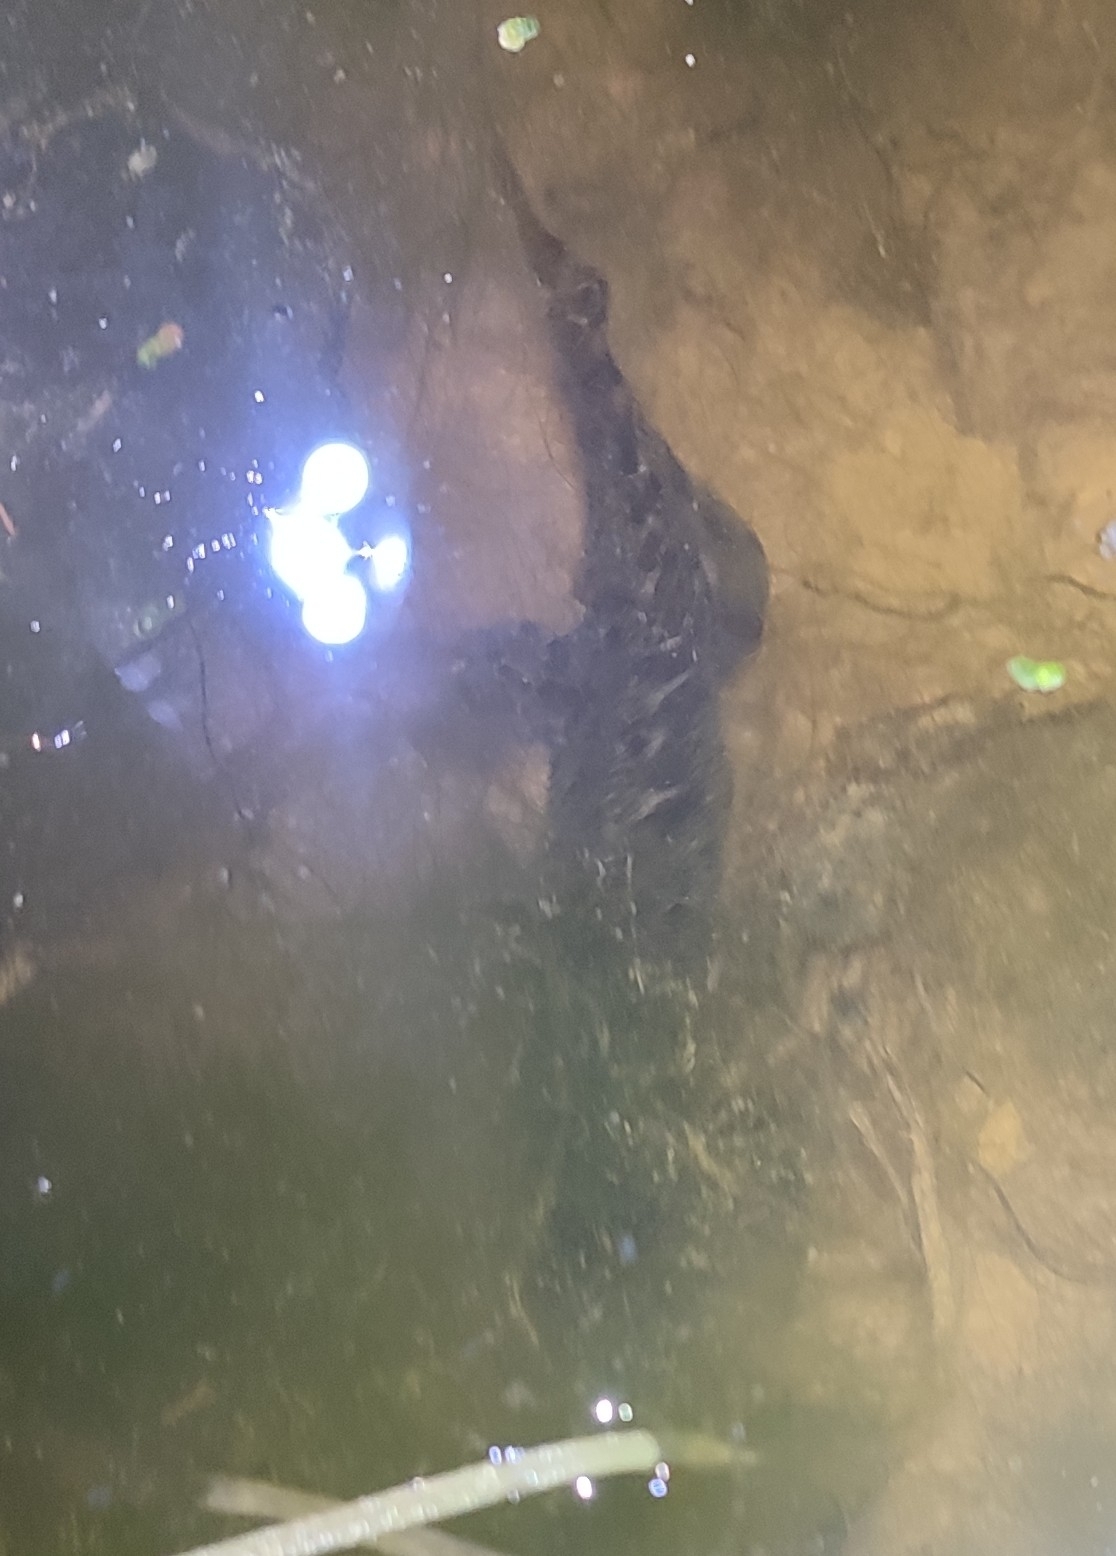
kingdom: Animalia
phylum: Chordata
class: Amphibia
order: Caudata
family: Salamandridae
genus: Triturus
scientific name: Triturus marmoratus
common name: Marbled newt
